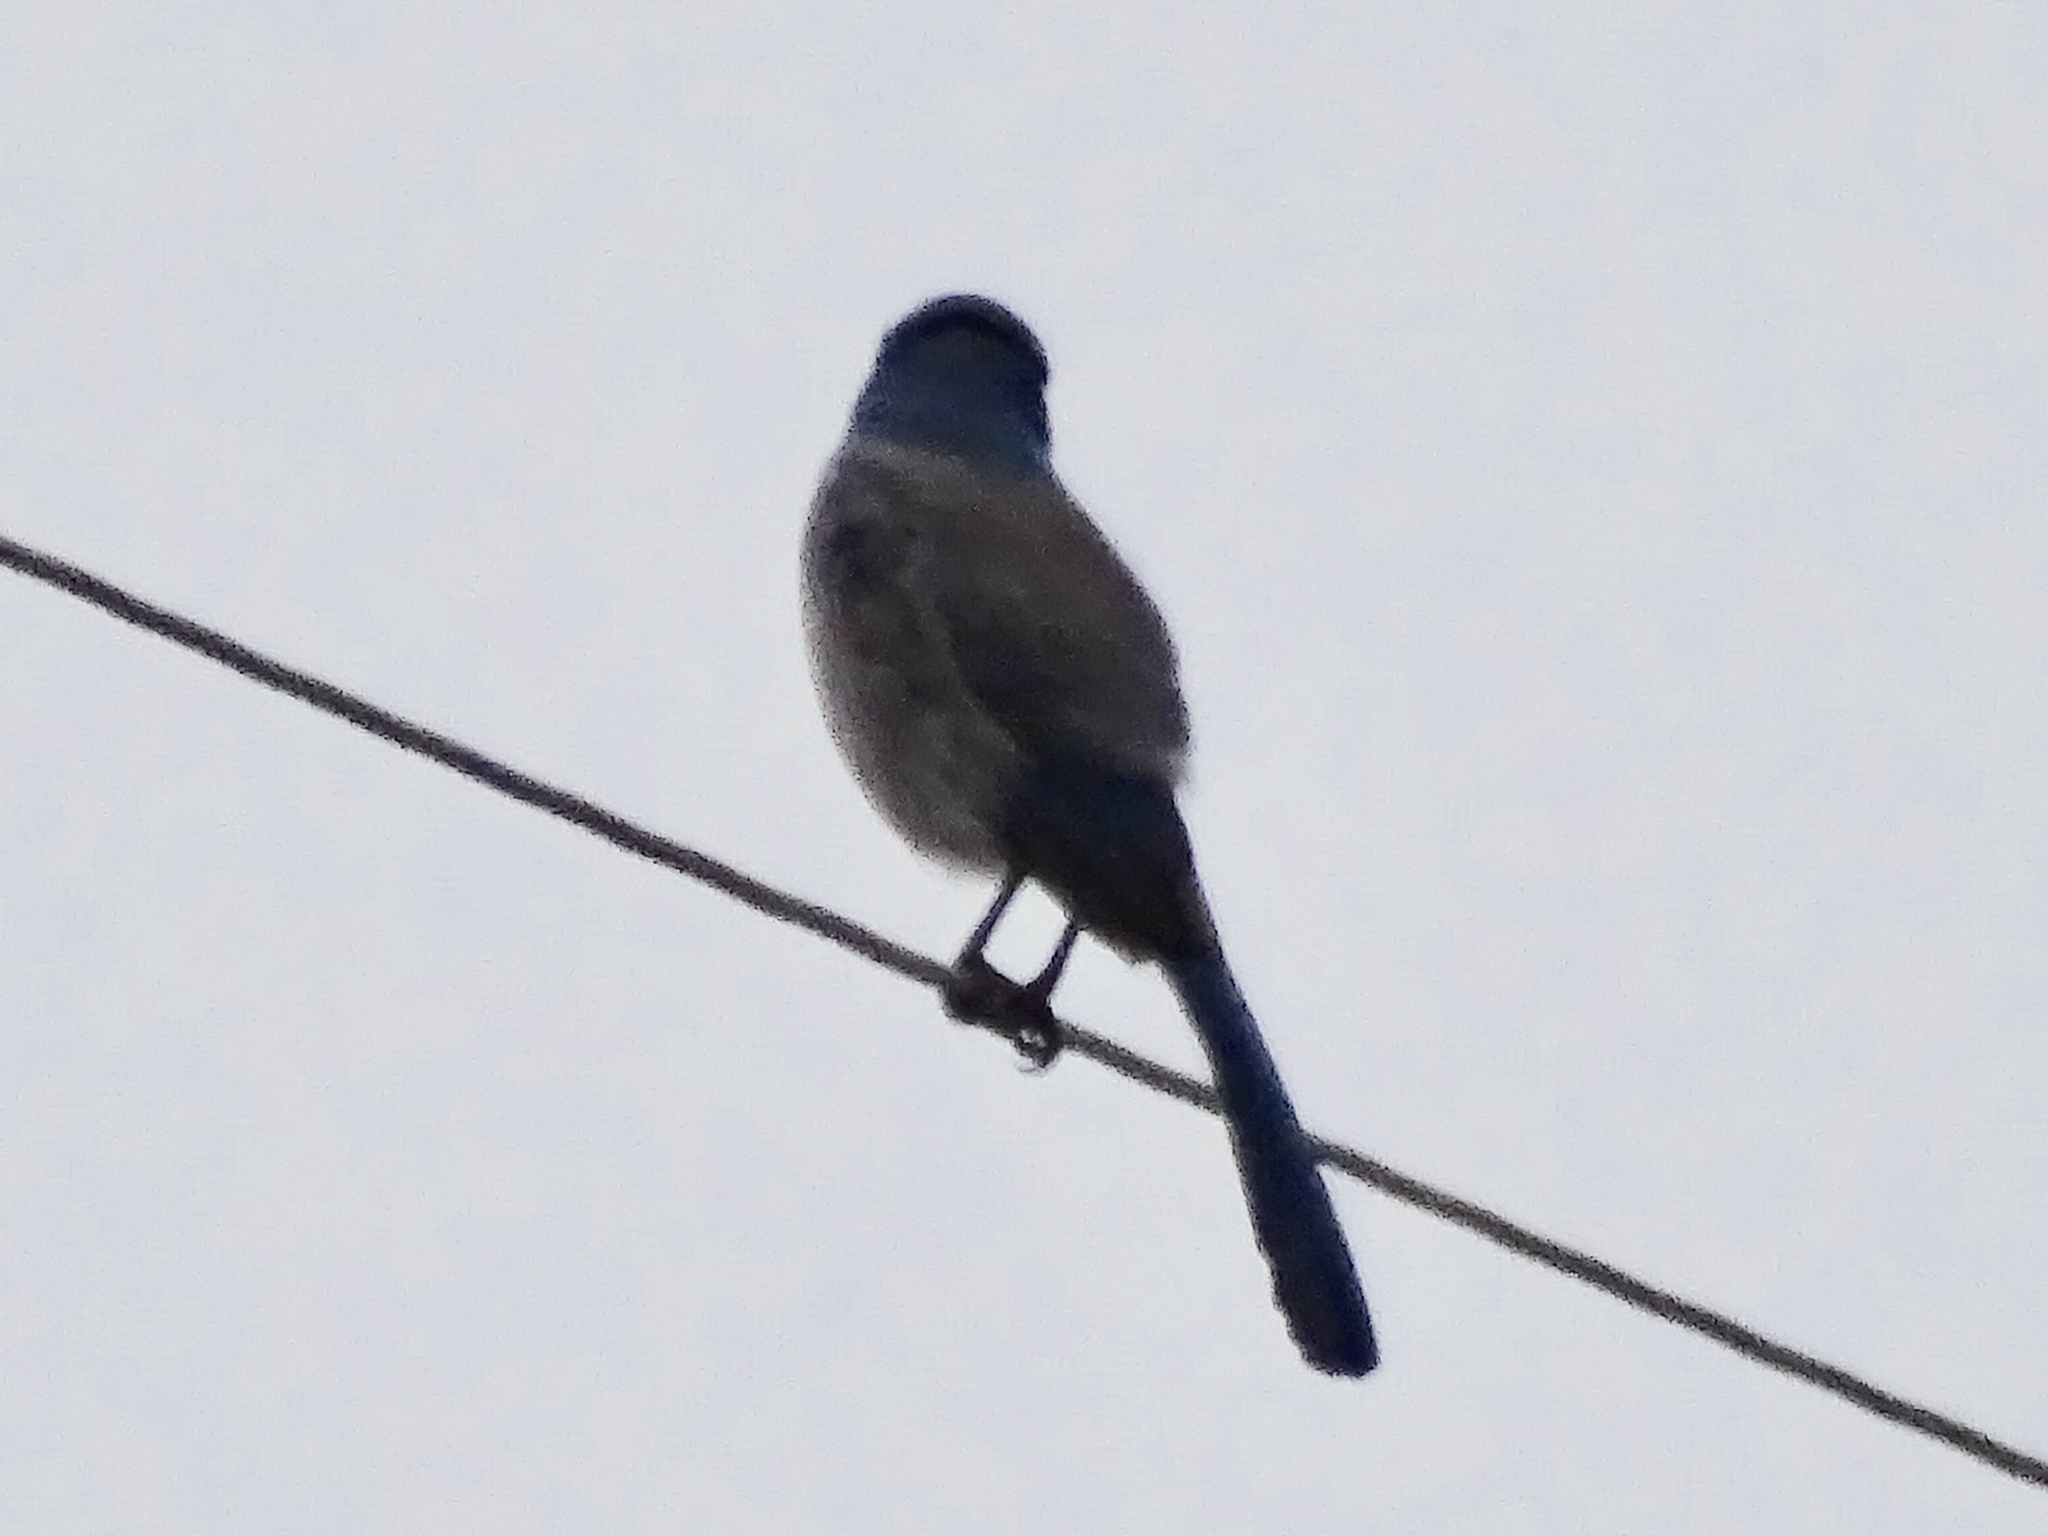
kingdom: Animalia
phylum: Chordata
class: Aves
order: Passeriformes
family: Corvidae
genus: Aphelocoma
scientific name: Aphelocoma woodhouseii
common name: Woodhouse's scrub-jay
